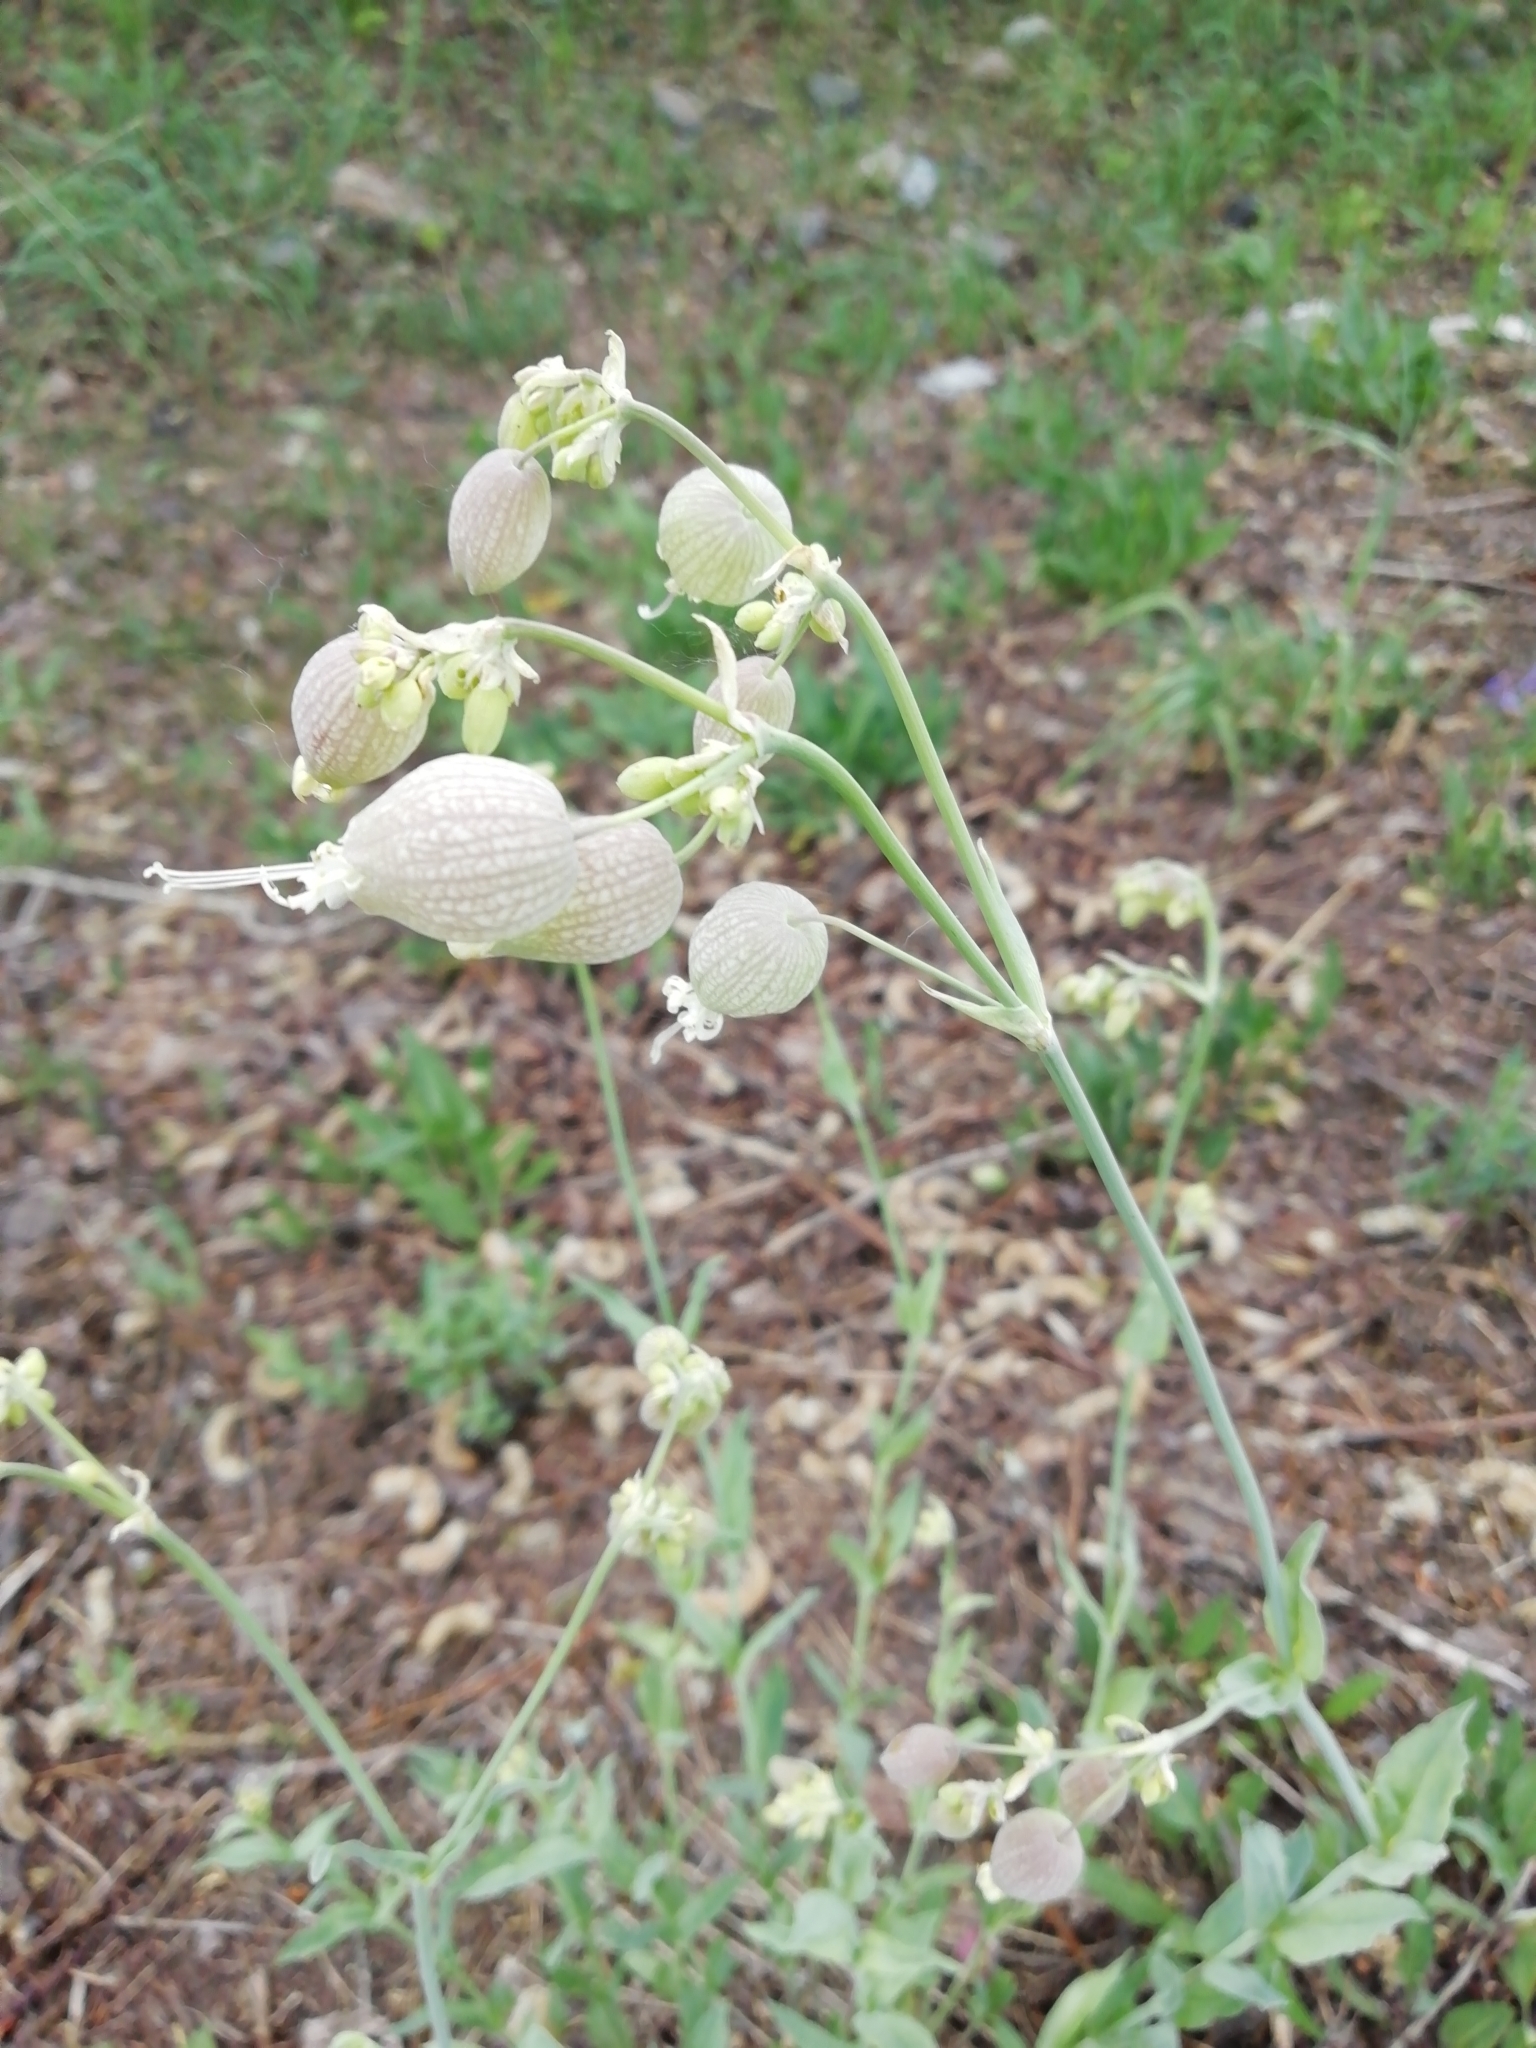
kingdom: Plantae
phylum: Tracheophyta
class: Magnoliopsida
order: Caryophyllales
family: Caryophyllaceae
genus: Silene
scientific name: Silene vulgaris
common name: Bladder campion
